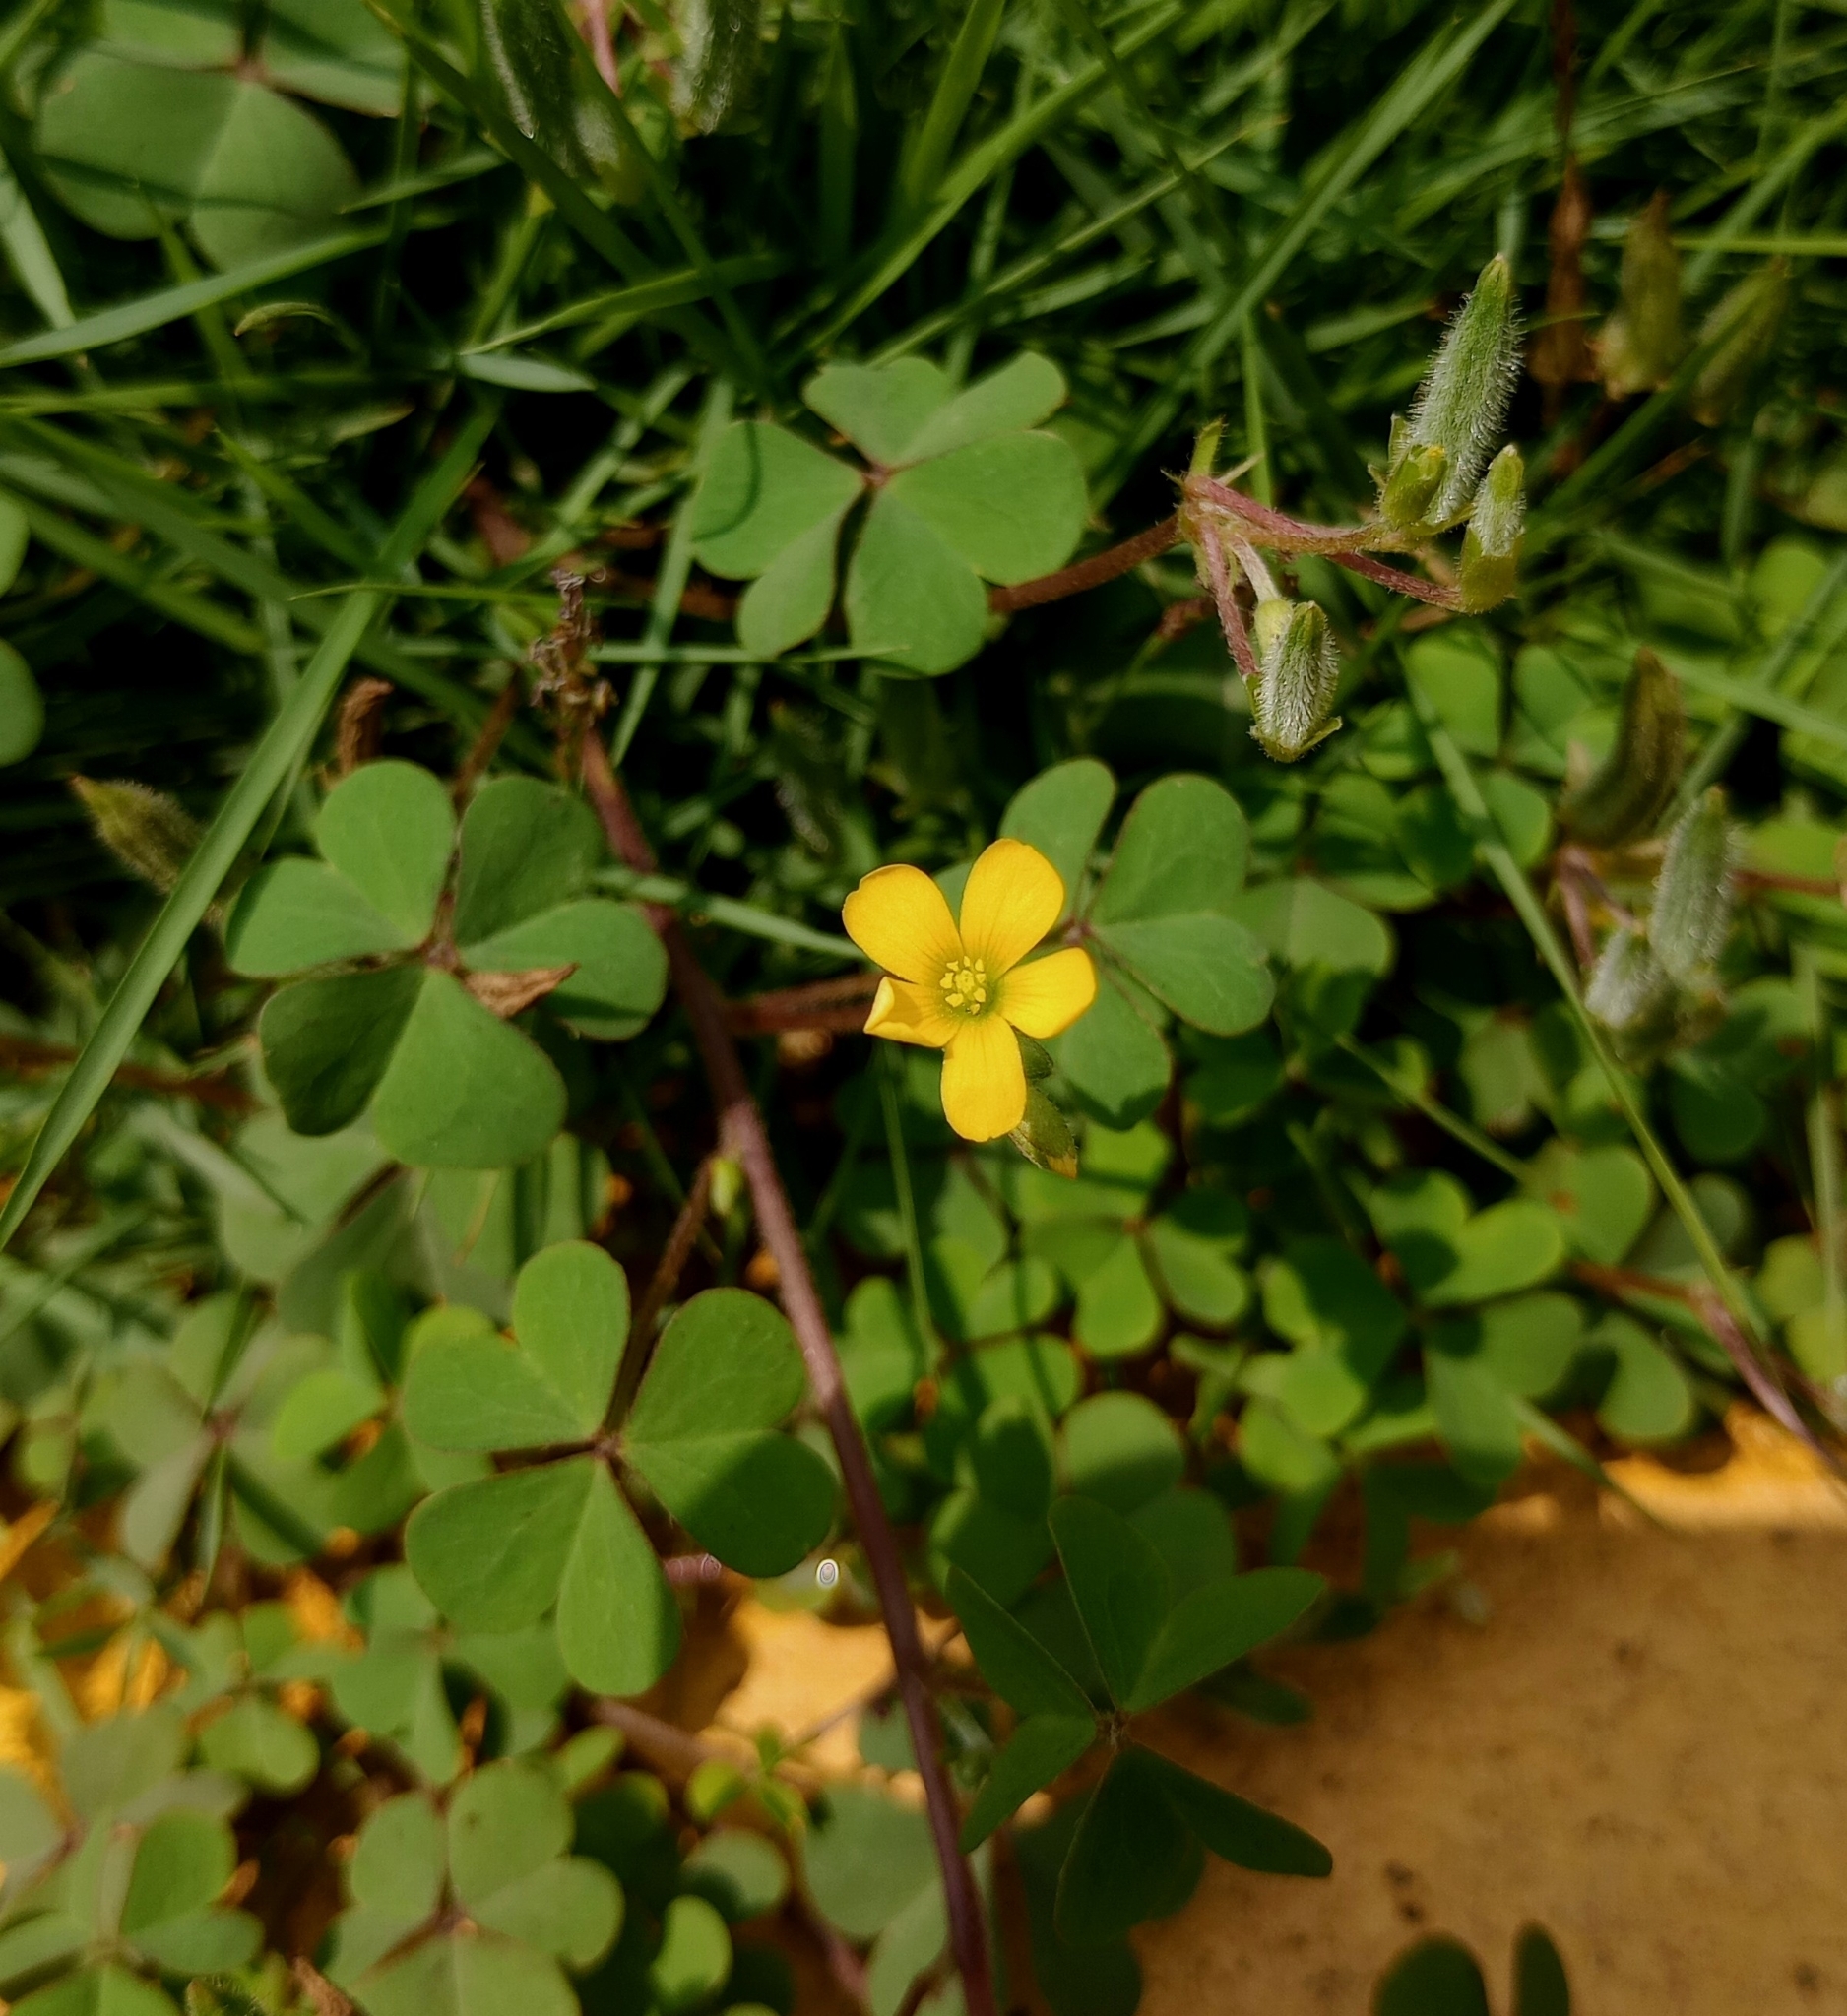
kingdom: Plantae
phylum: Tracheophyta
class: Magnoliopsida
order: Oxalidales
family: Oxalidaceae
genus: Oxalis
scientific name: Oxalis corniculata
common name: Procumbent yellow-sorrel
